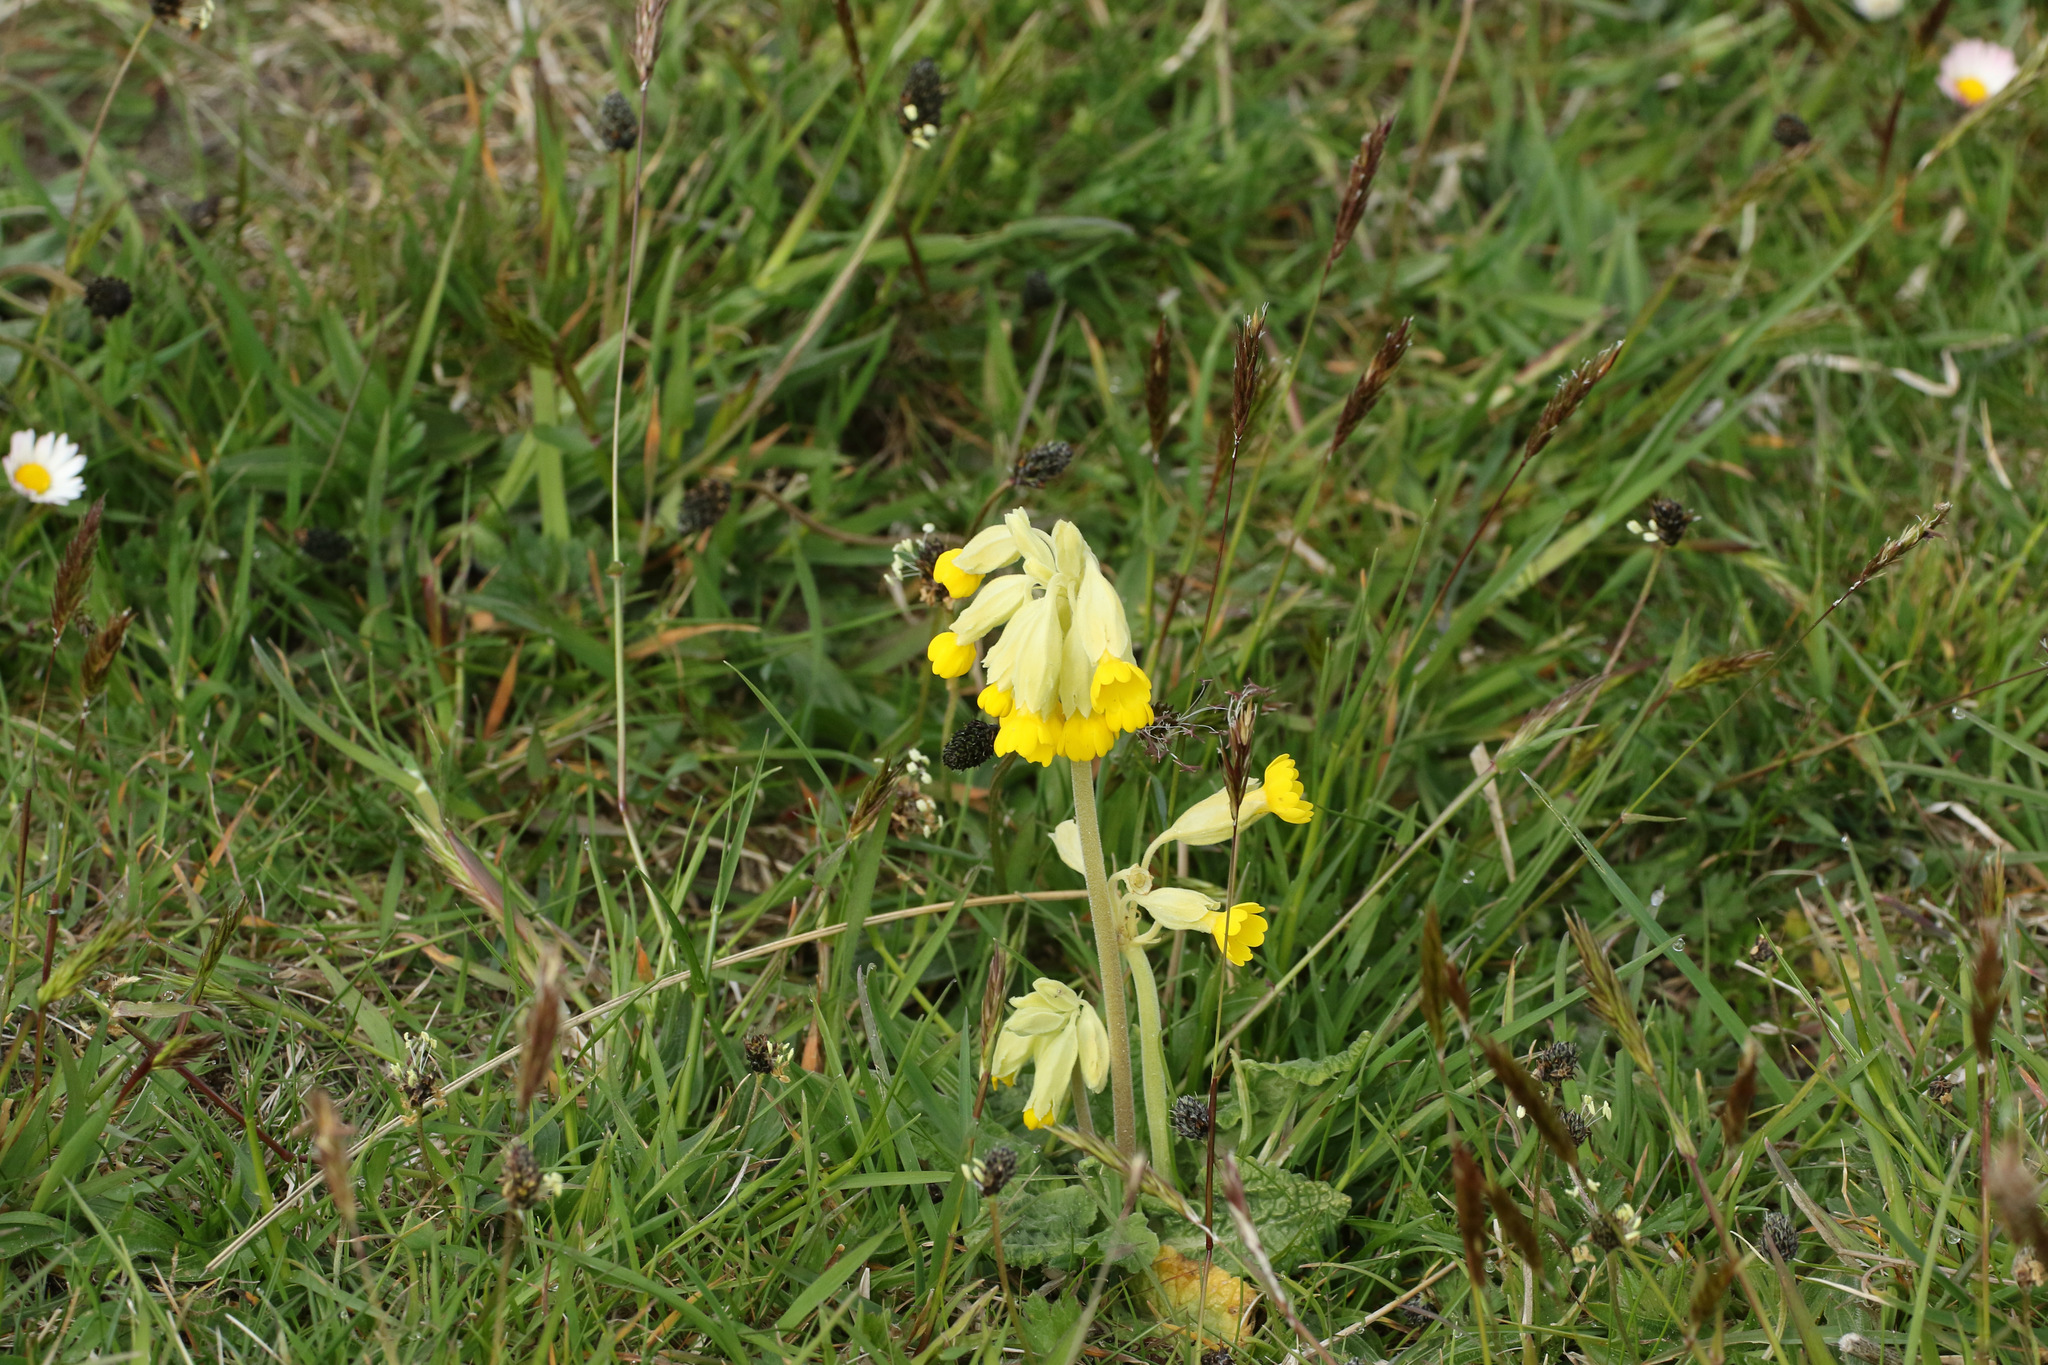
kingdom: Plantae
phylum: Tracheophyta
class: Magnoliopsida
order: Ericales
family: Primulaceae
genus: Primula
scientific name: Primula veris
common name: Cowslip
